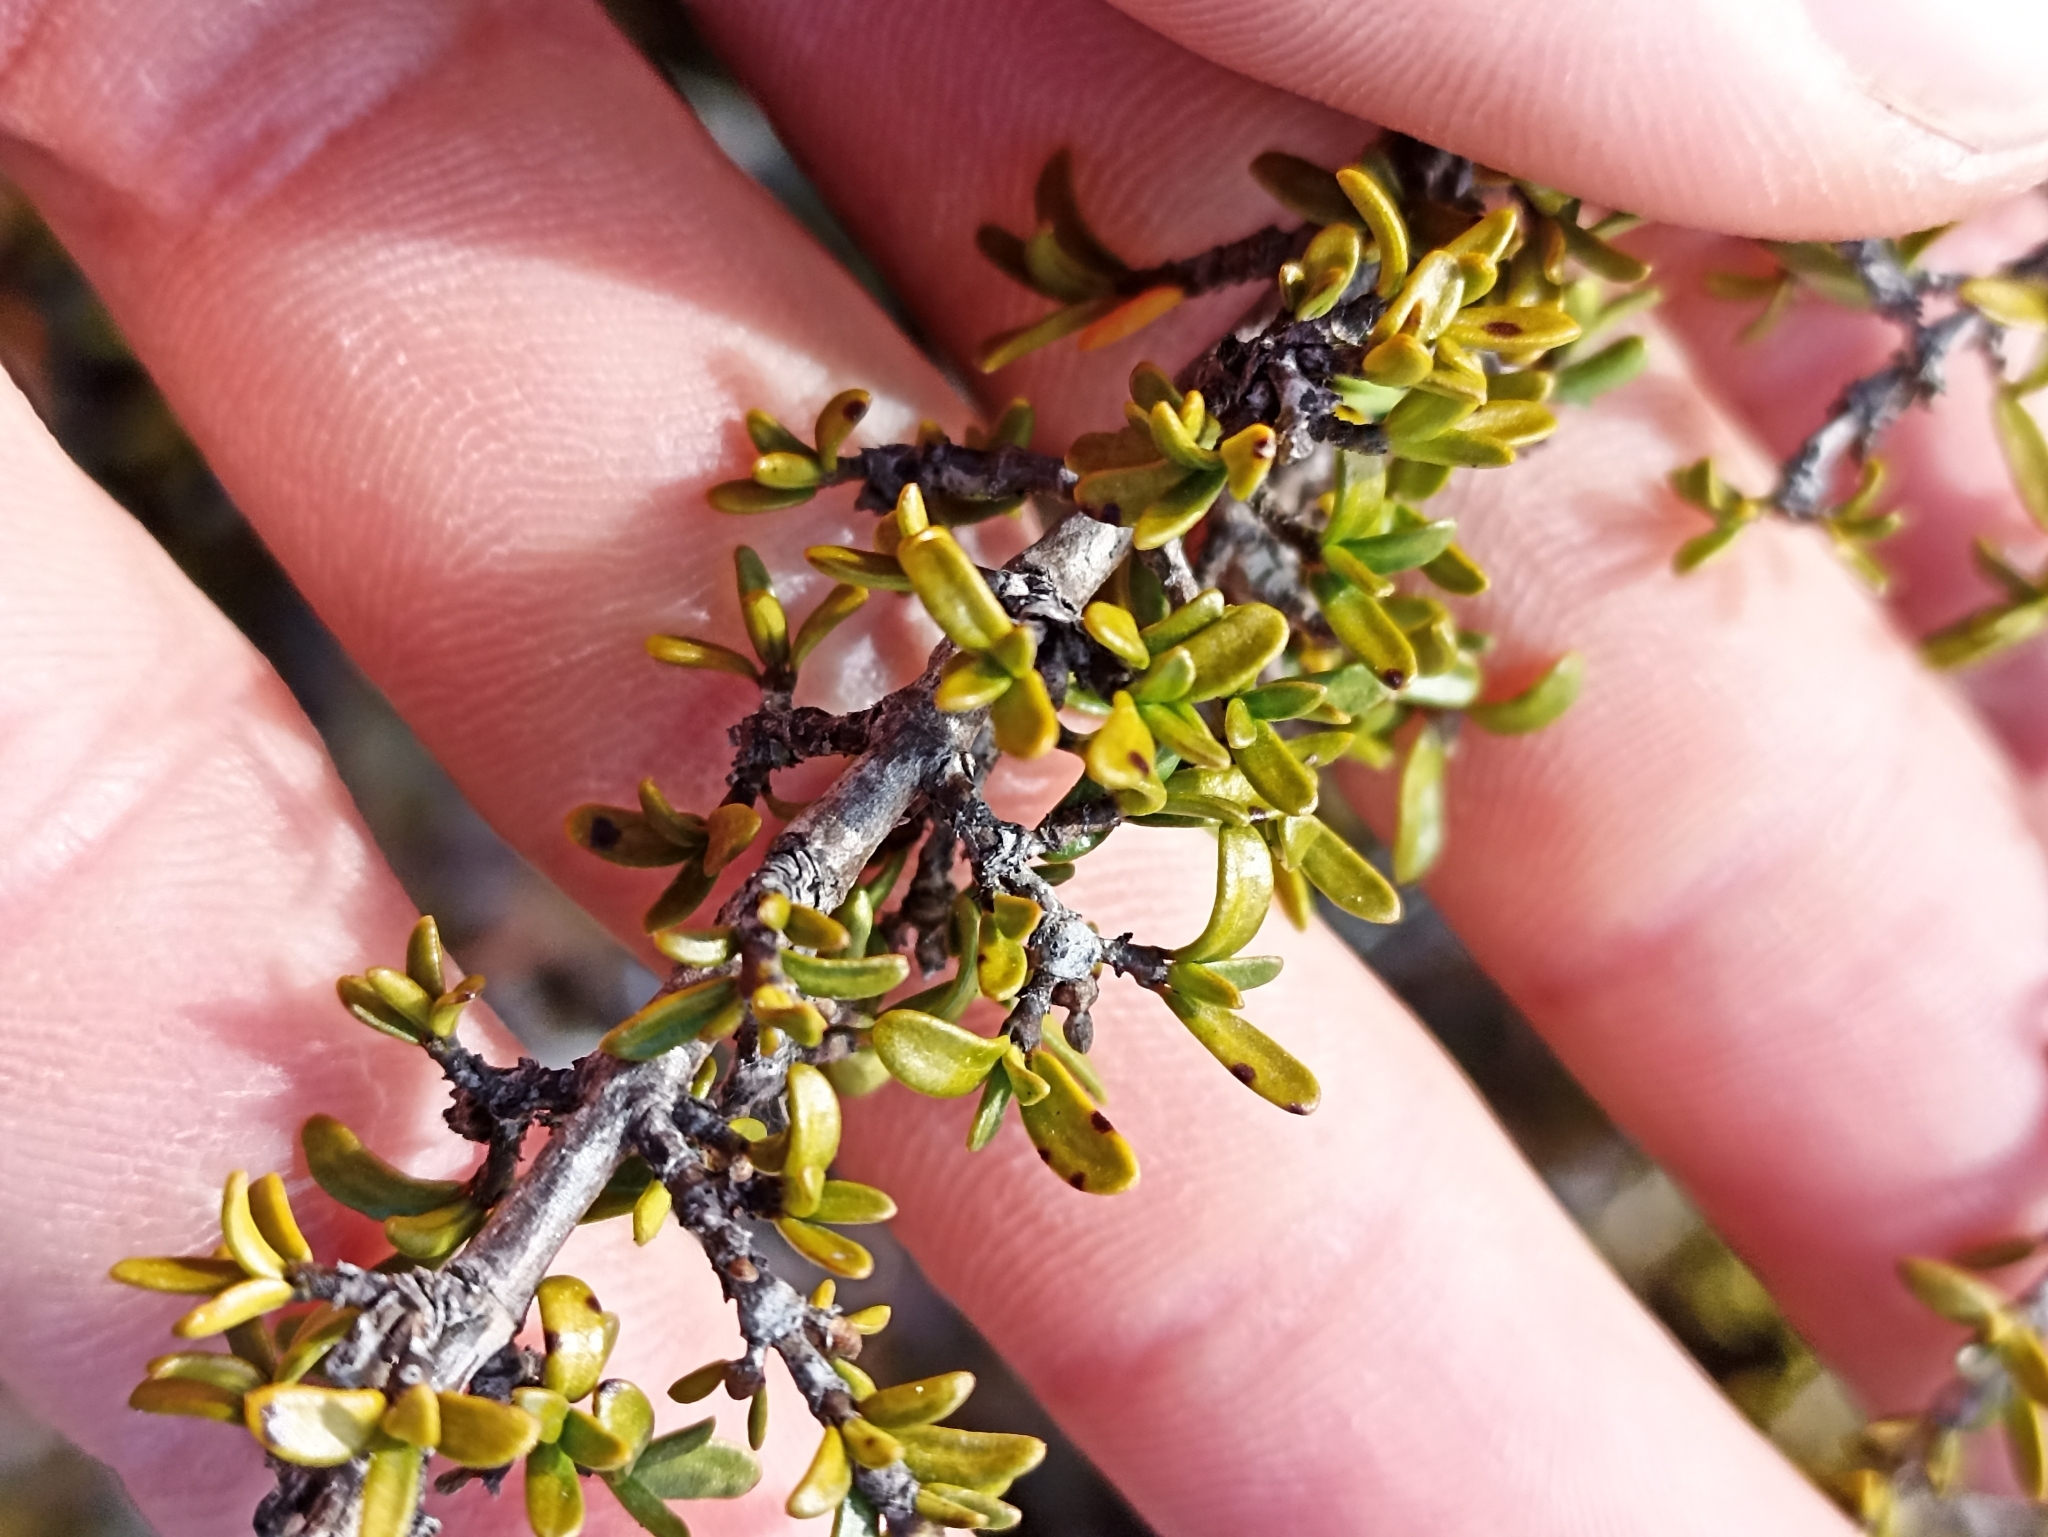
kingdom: Plantae
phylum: Tracheophyta
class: Magnoliopsida
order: Gentianales
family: Rubiaceae
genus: Coprosma
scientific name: Coprosma pseudocuneata
